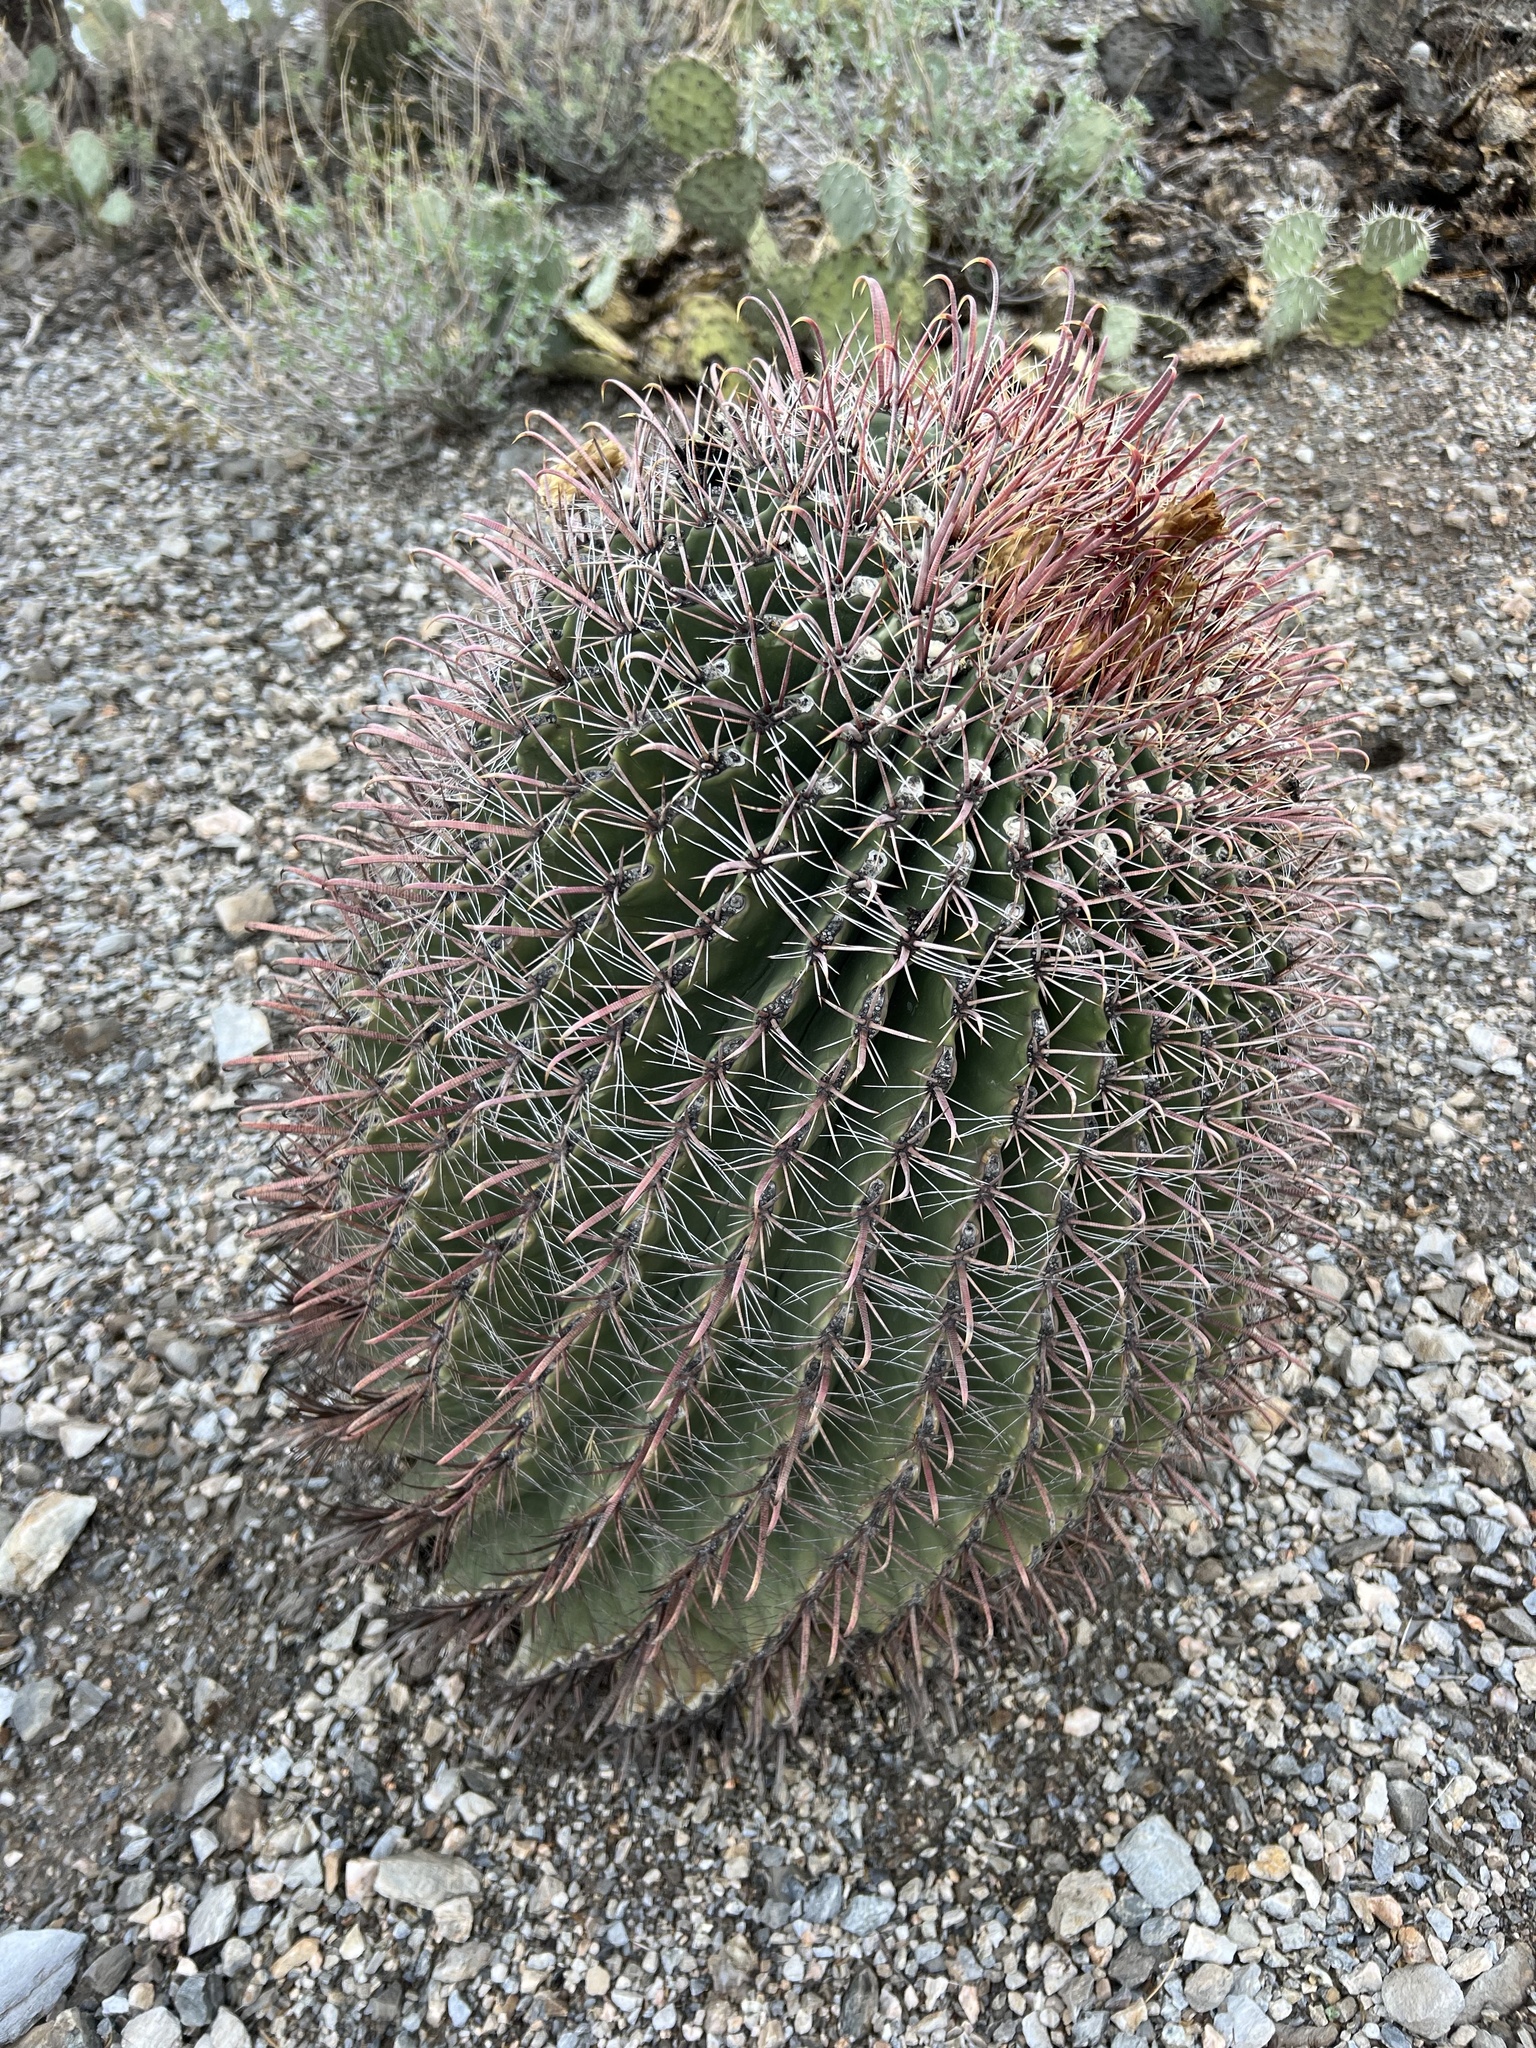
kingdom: Plantae
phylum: Tracheophyta
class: Magnoliopsida
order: Caryophyllales
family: Cactaceae
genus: Ferocactus
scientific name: Ferocactus wislizeni
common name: Candy barrel cactus
